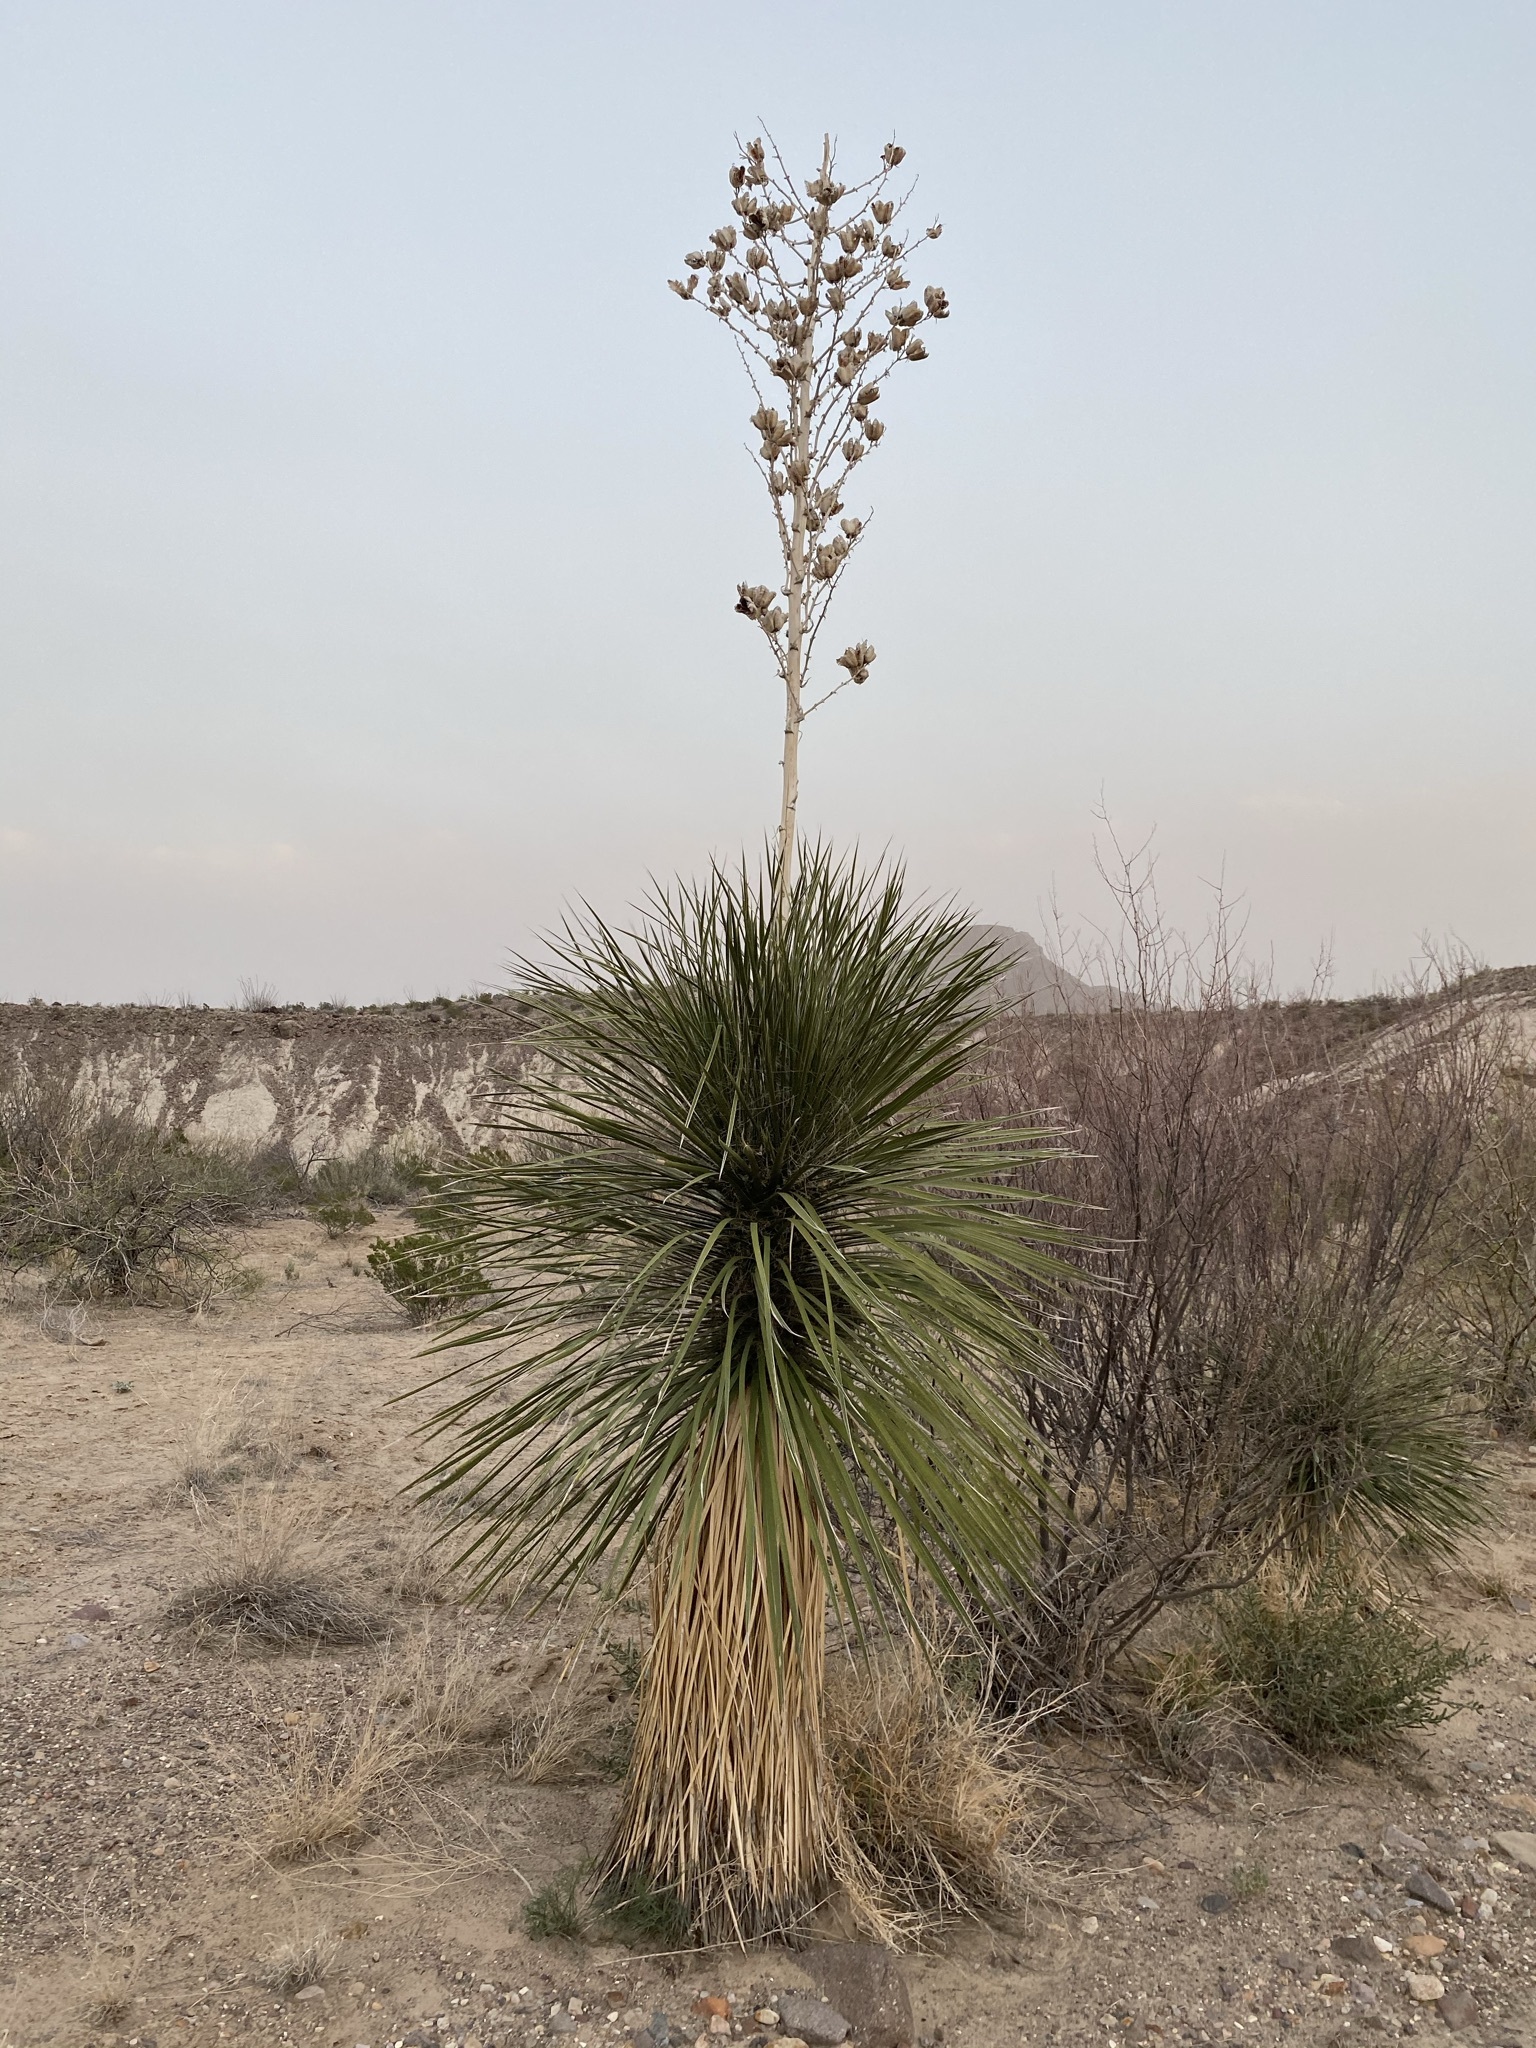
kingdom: Plantae
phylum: Tracheophyta
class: Liliopsida
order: Asparagales
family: Asparagaceae
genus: Yucca
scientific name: Yucca elata
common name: Palmella
